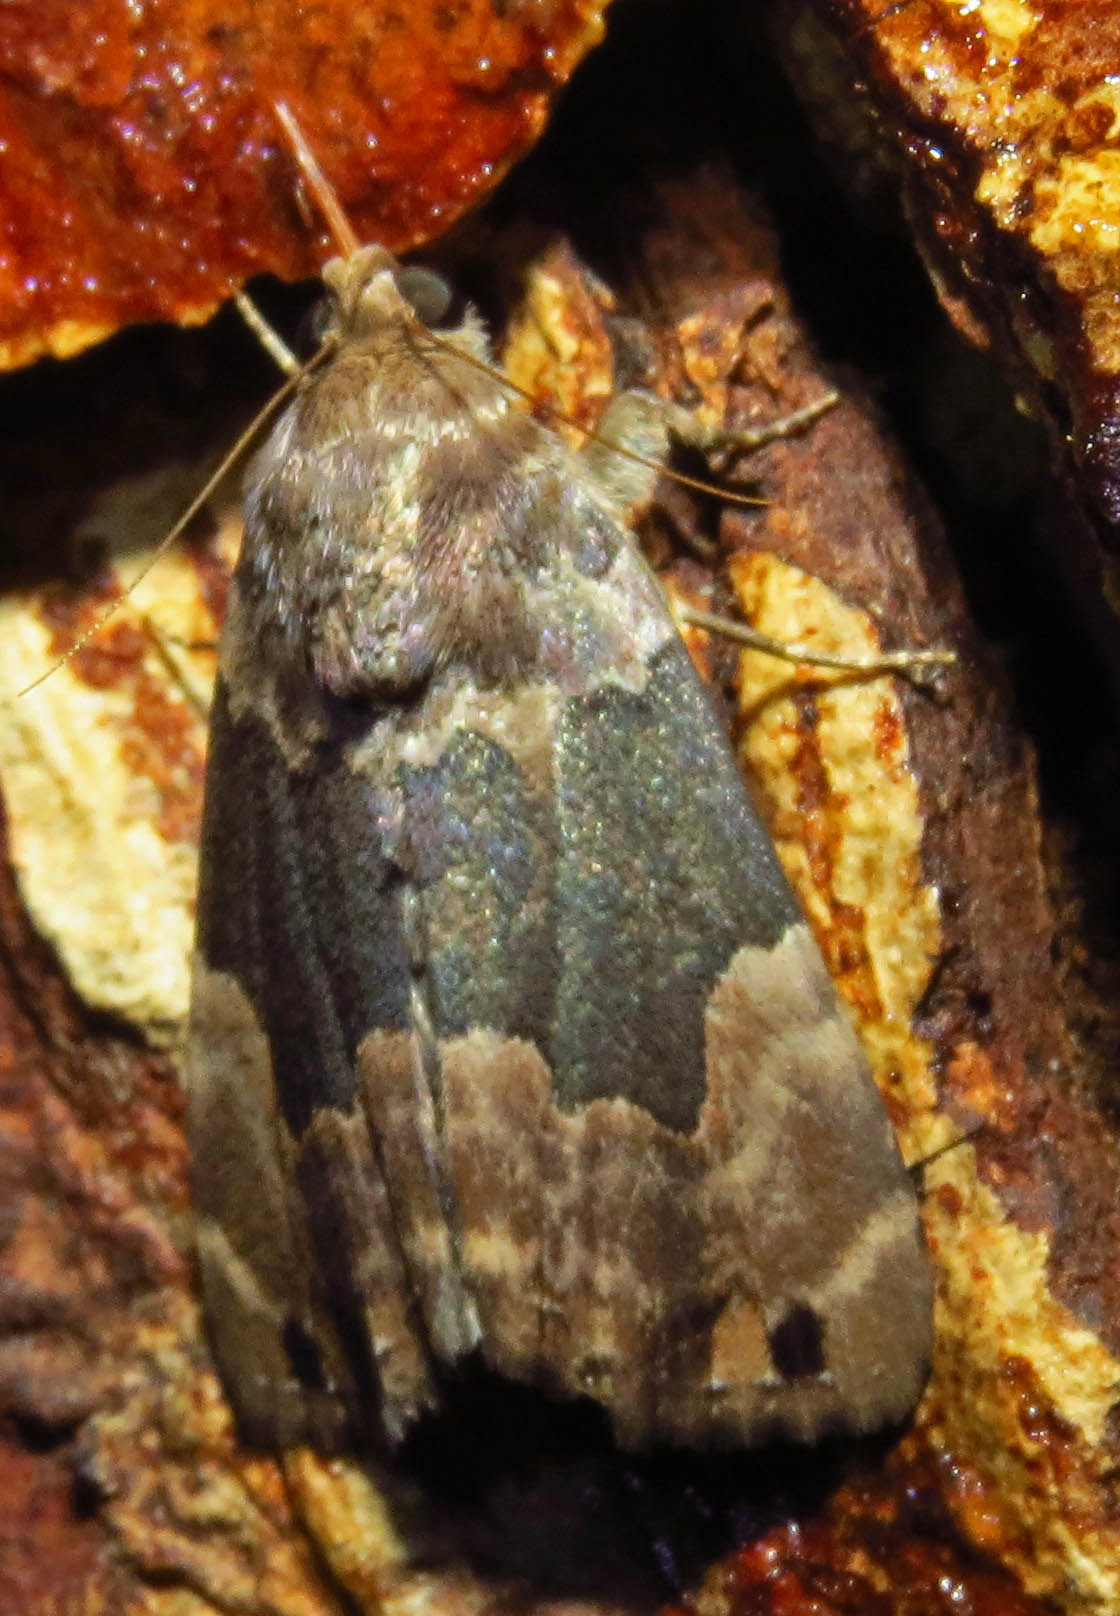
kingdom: Animalia
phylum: Arthropoda
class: Insecta
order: Lepidoptera
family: Erebidae
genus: Dinumma
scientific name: Dinumma deponens
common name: Purplish moth
